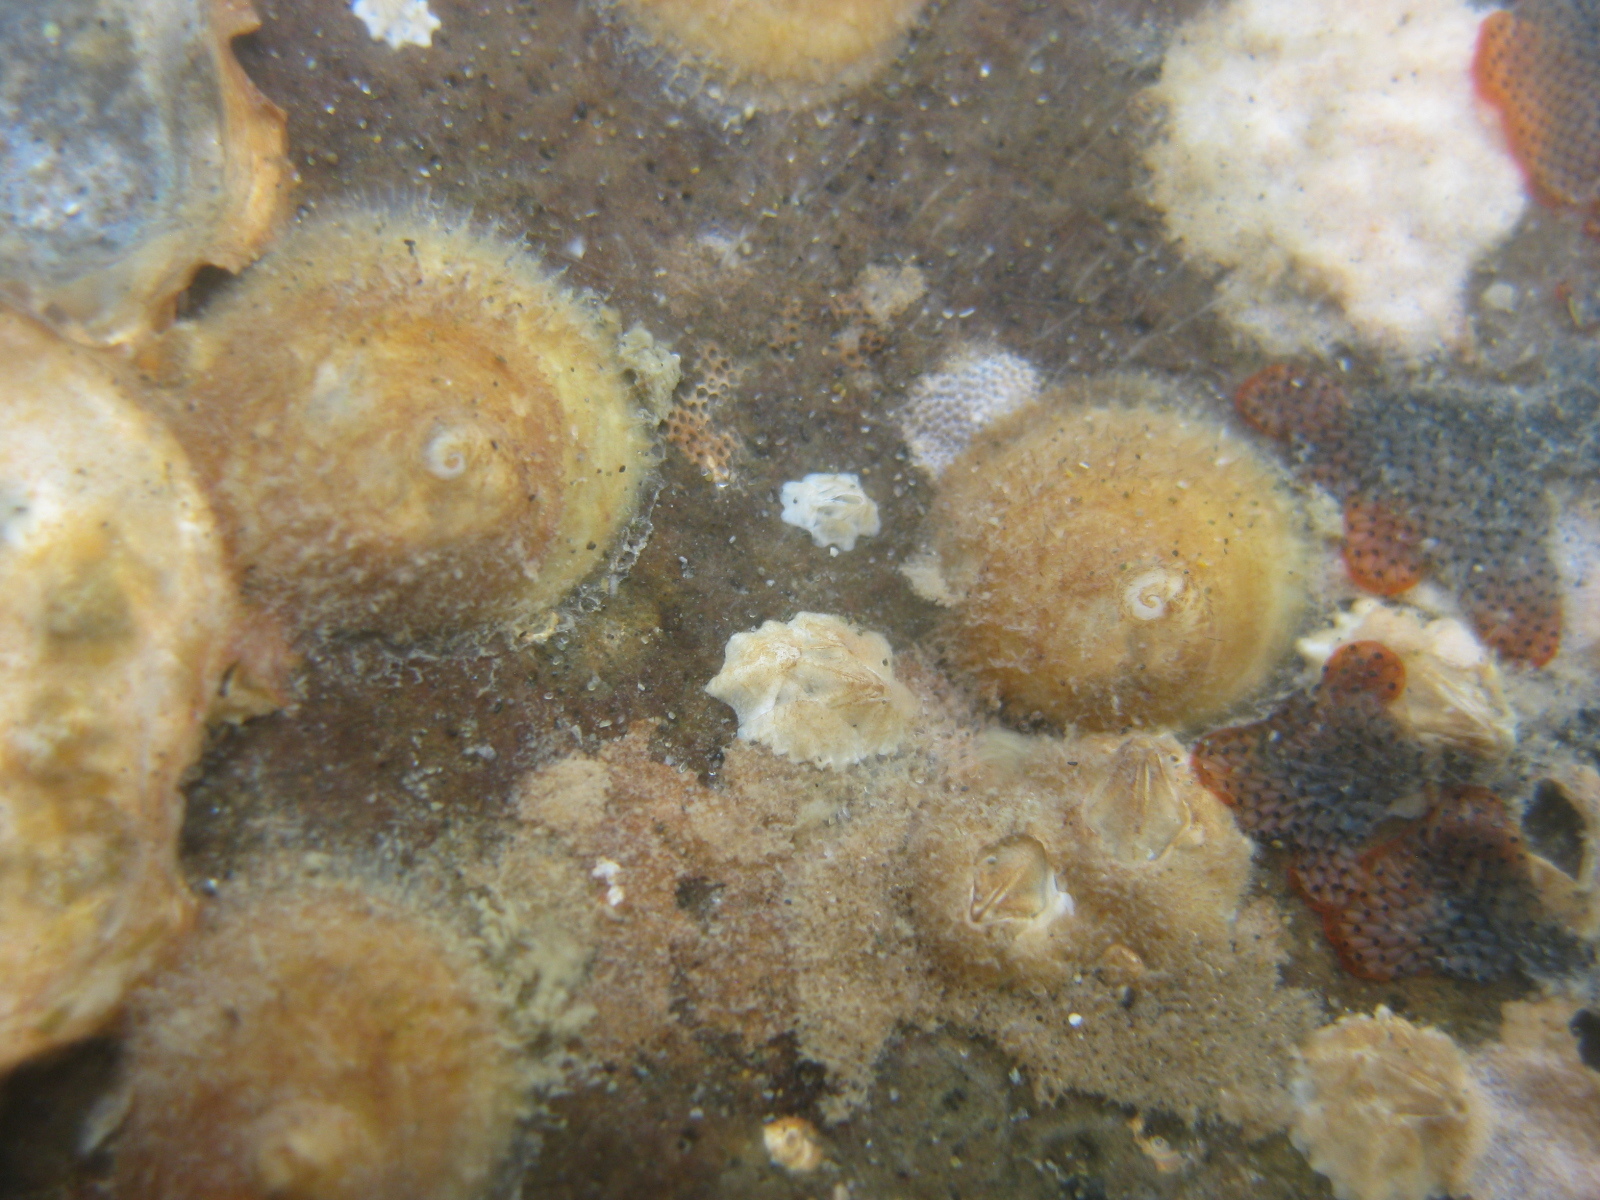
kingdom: Animalia
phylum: Mollusca
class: Gastropoda
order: Littorinimorpha
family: Calyptraeidae
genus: Sigapatella
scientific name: Sigapatella novaezelandiae
